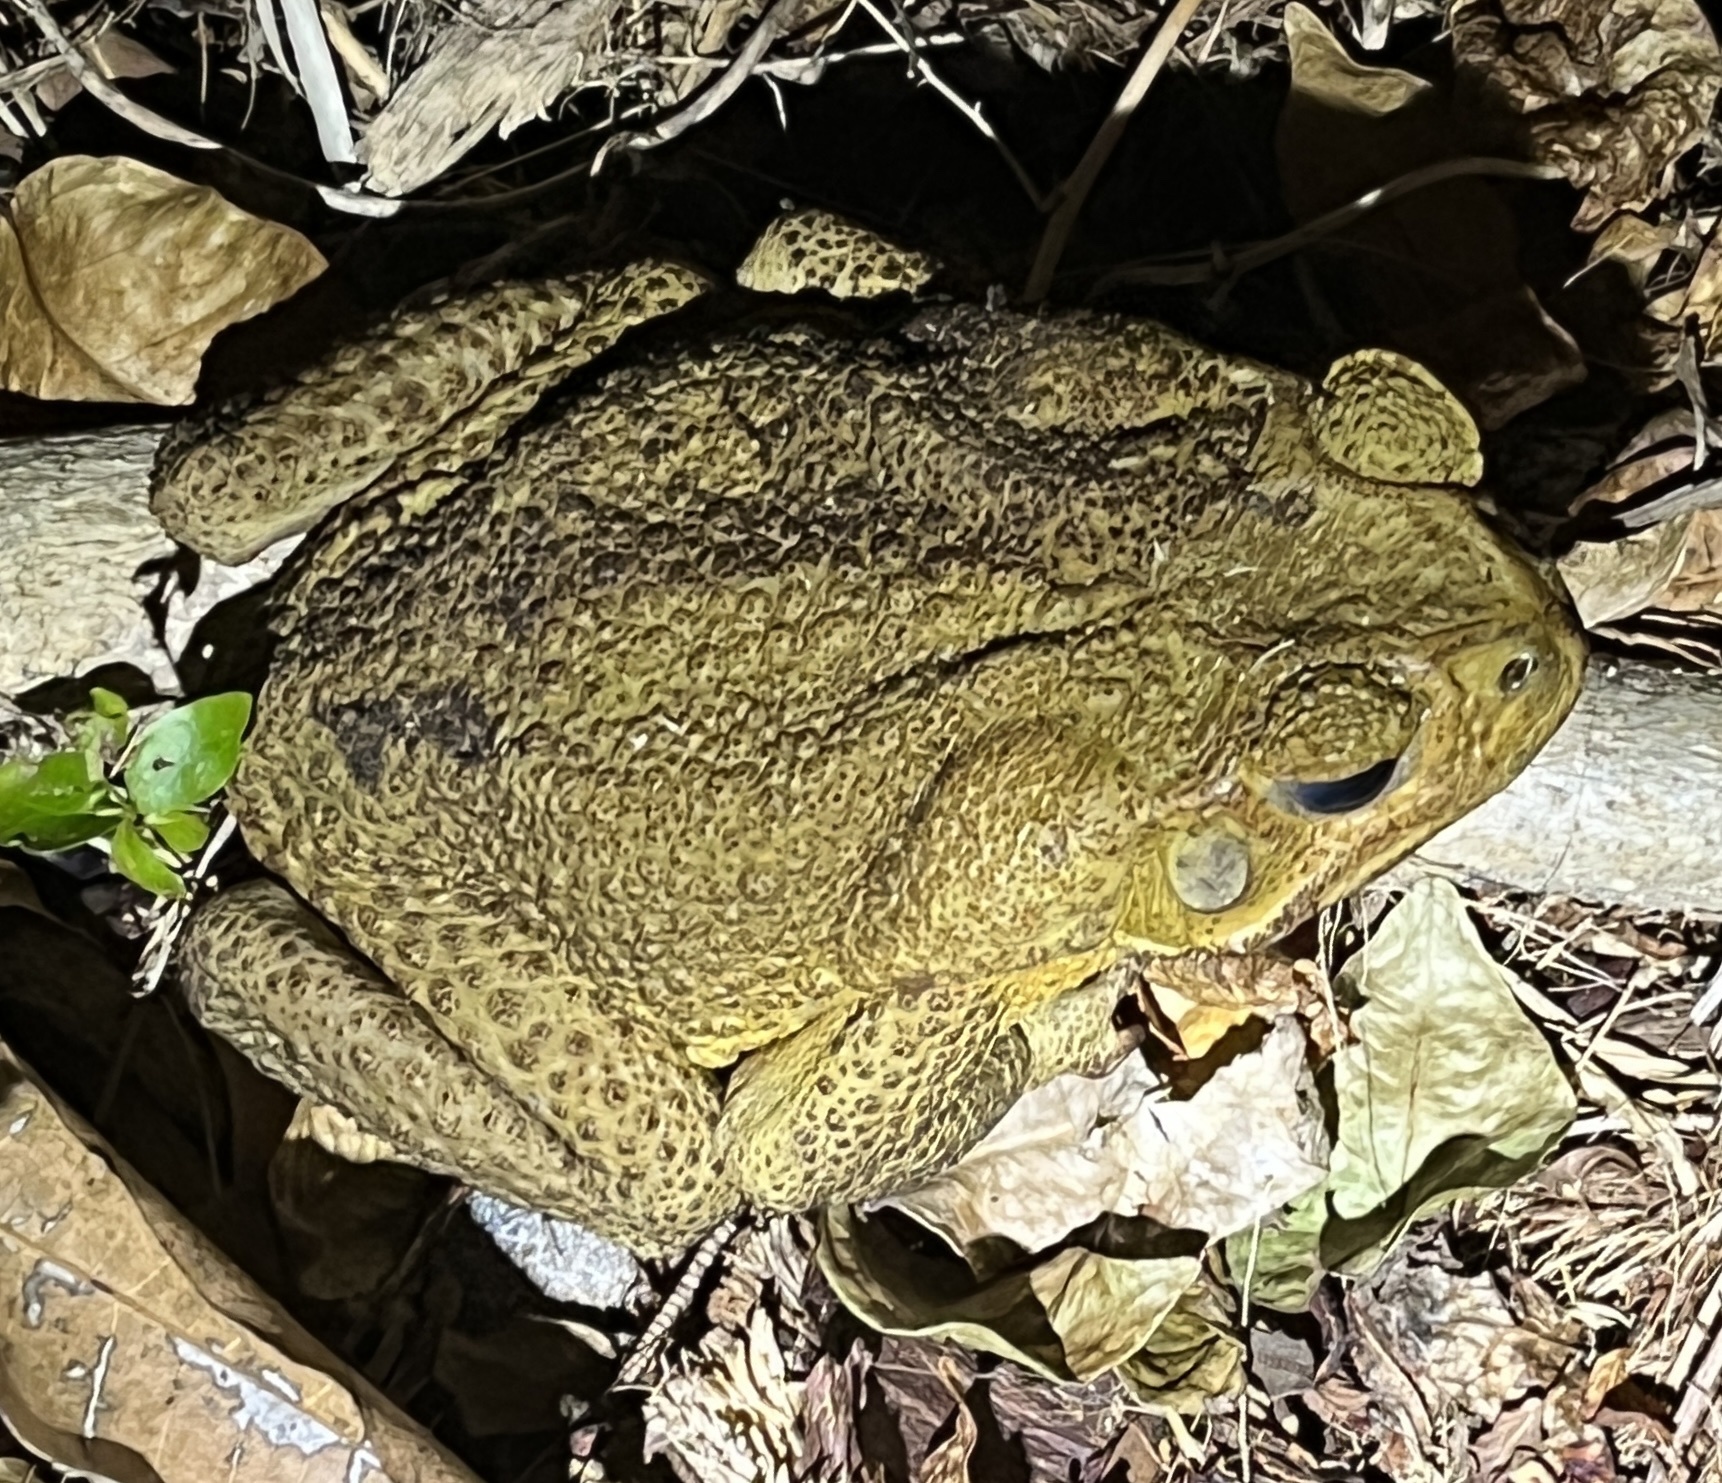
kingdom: Animalia
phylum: Chordata
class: Amphibia
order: Anura
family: Bufonidae
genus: Rhinella
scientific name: Rhinella marina
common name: Cane toad
